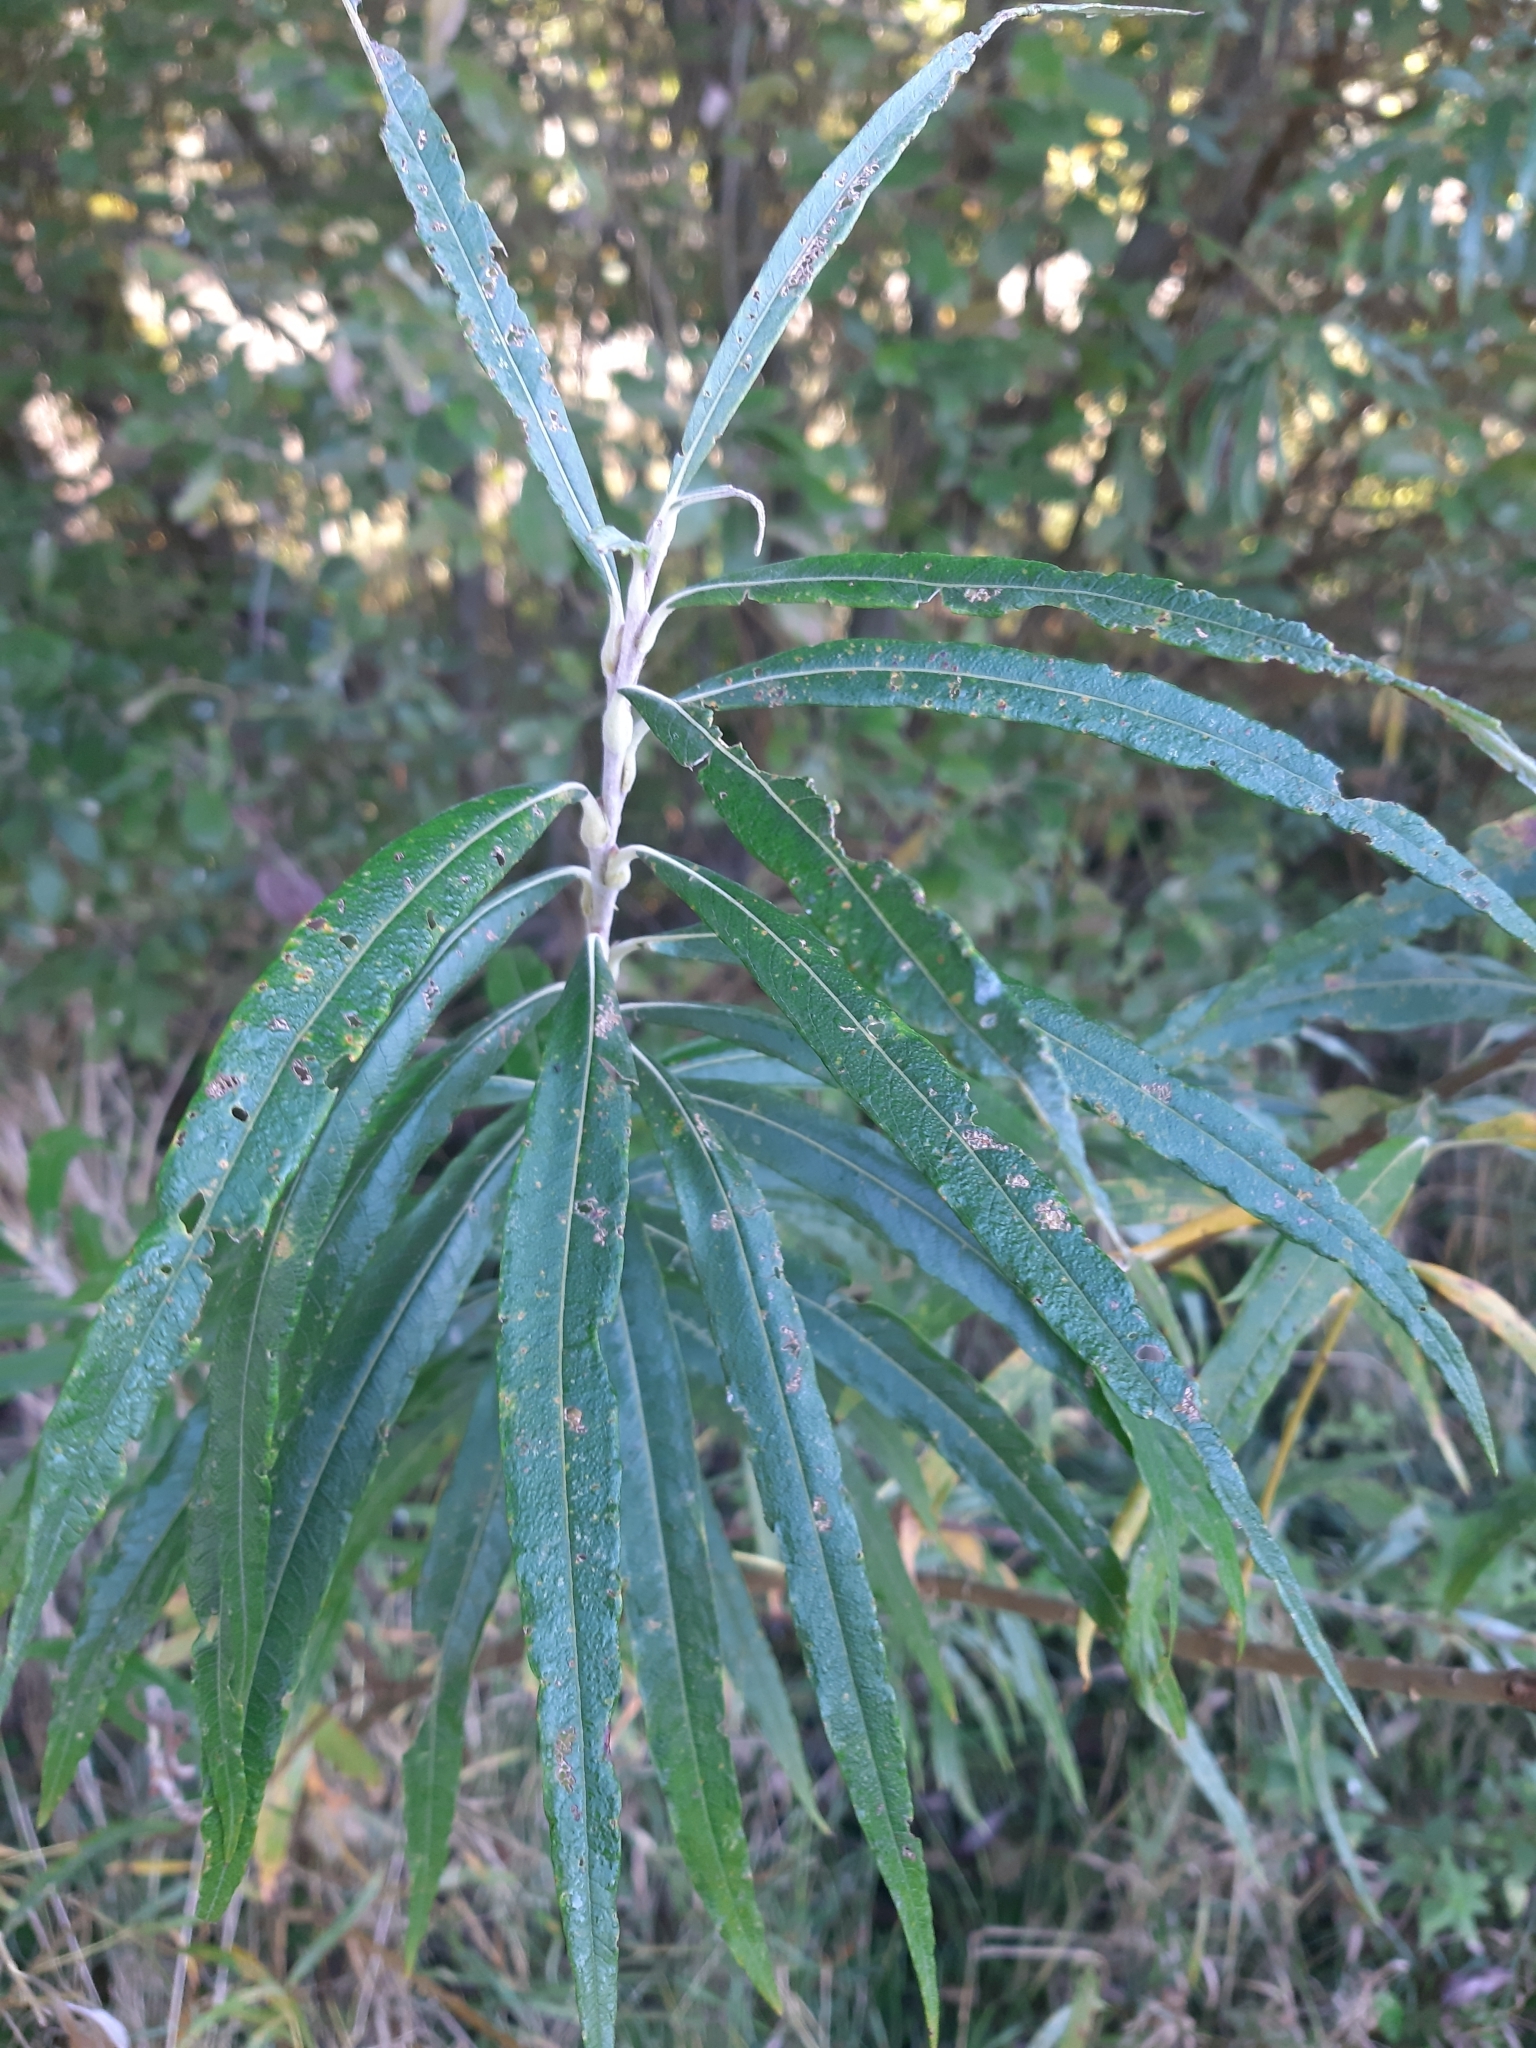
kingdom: Plantae
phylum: Tracheophyta
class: Magnoliopsida
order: Malpighiales
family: Salicaceae
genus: Salix
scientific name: Salix viminalis
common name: Osier
